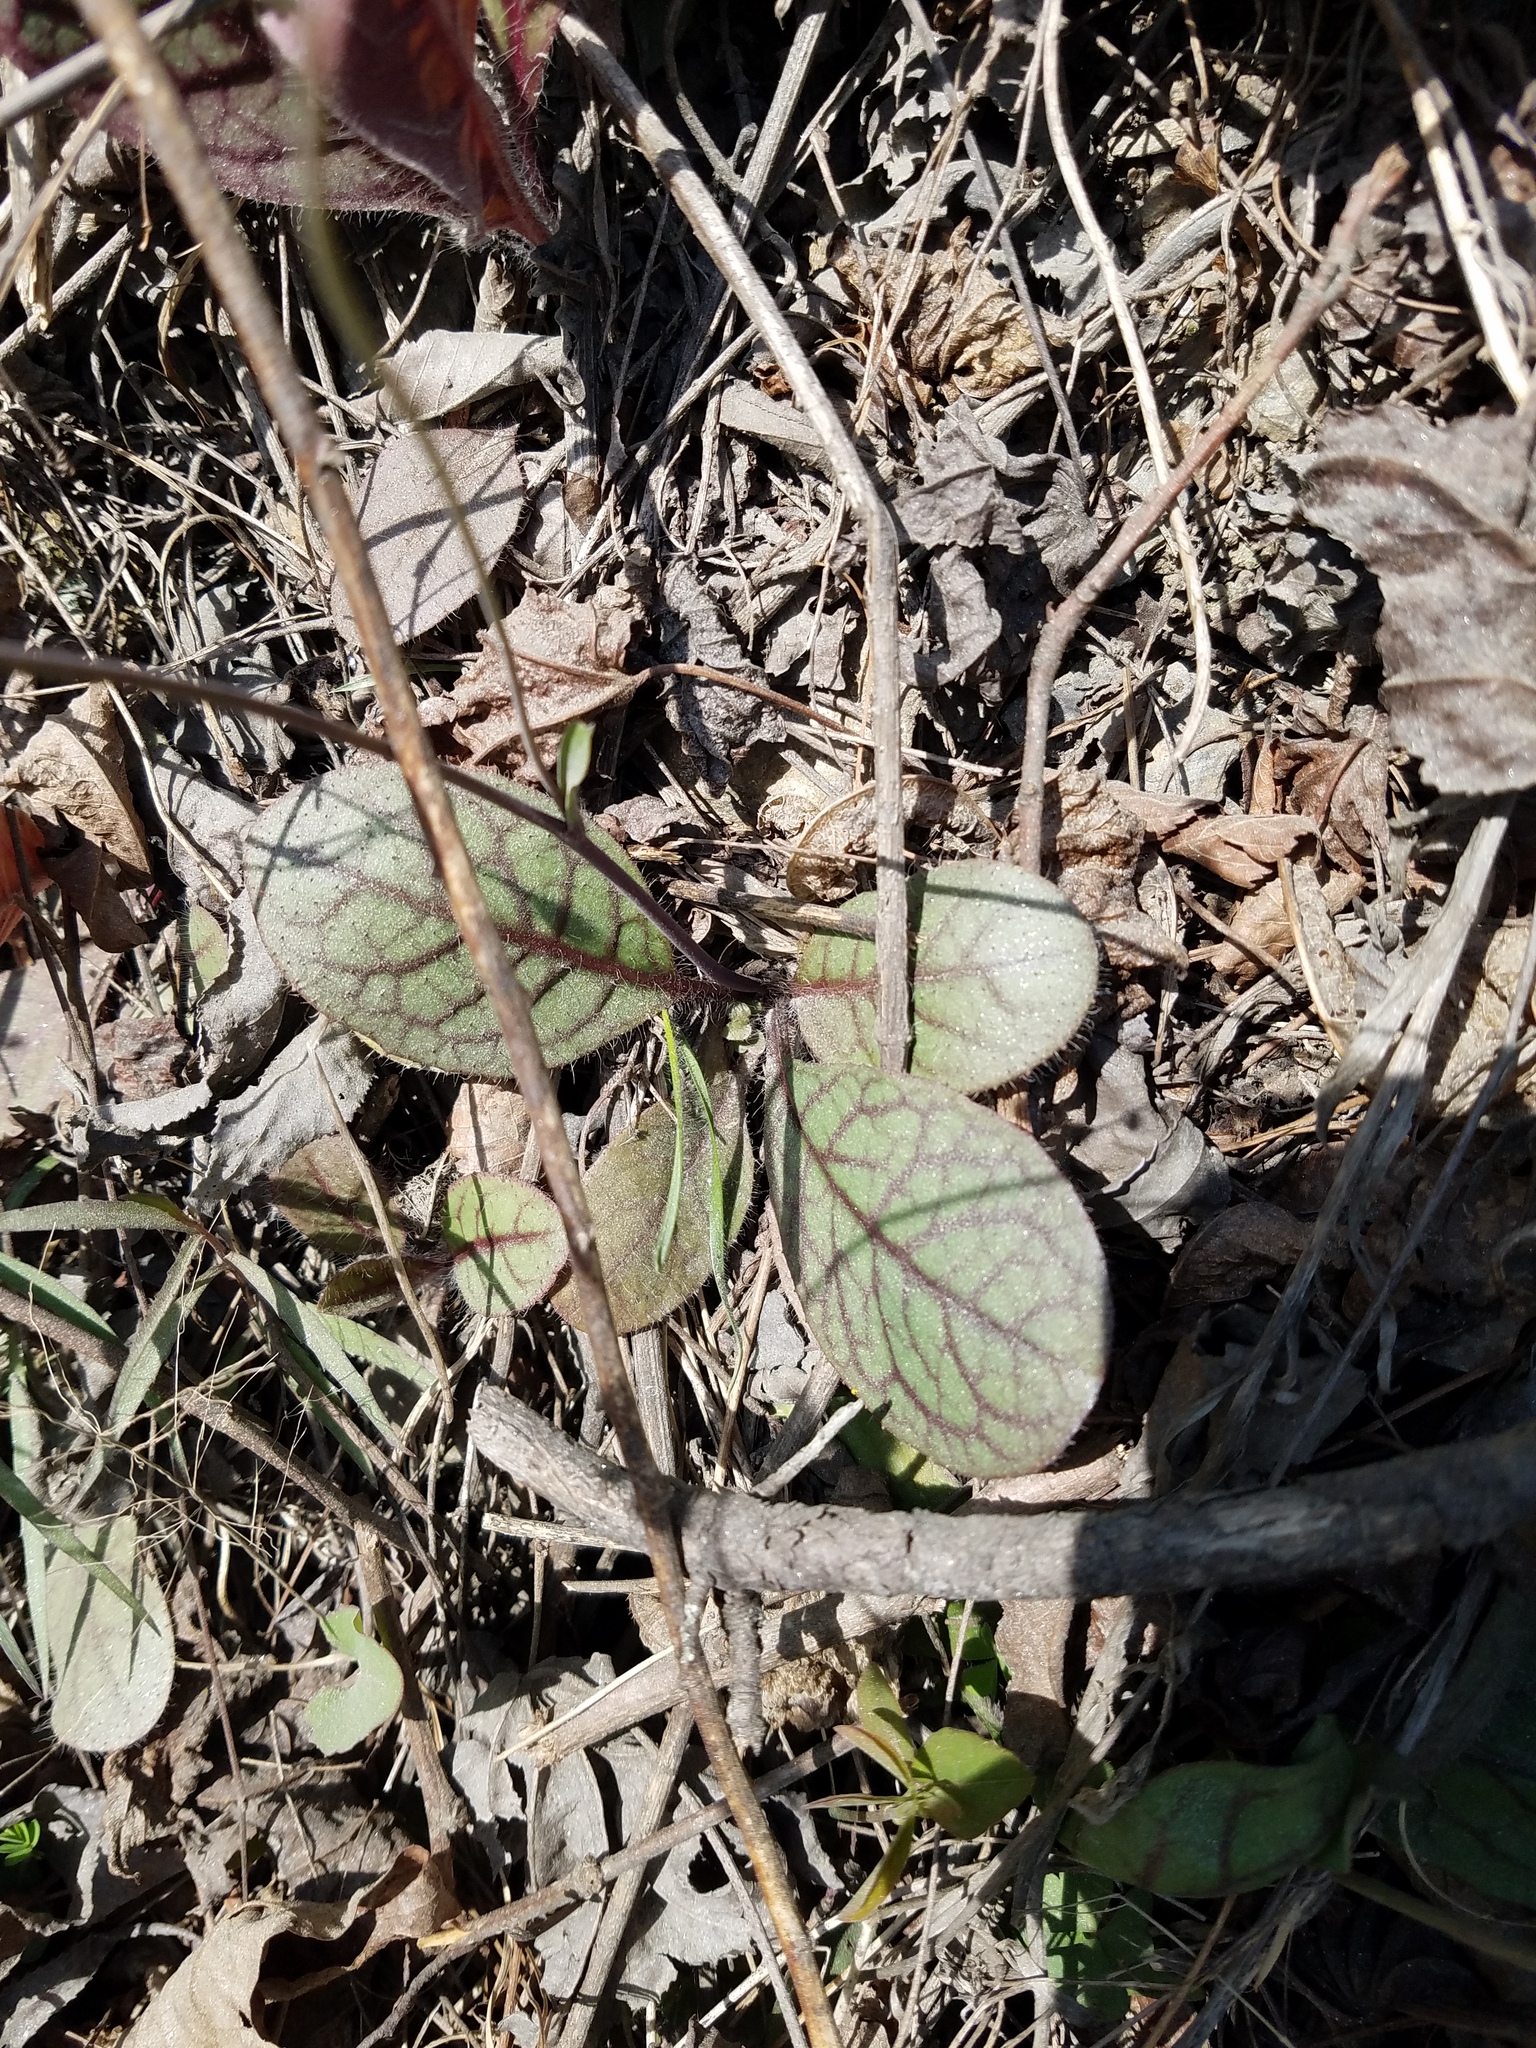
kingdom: Plantae
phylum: Tracheophyta
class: Magnoliopsida
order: Asterales
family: Asteraceae
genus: Hieracium
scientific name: Hieracium venosum
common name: Rattlesnake hawkweed
